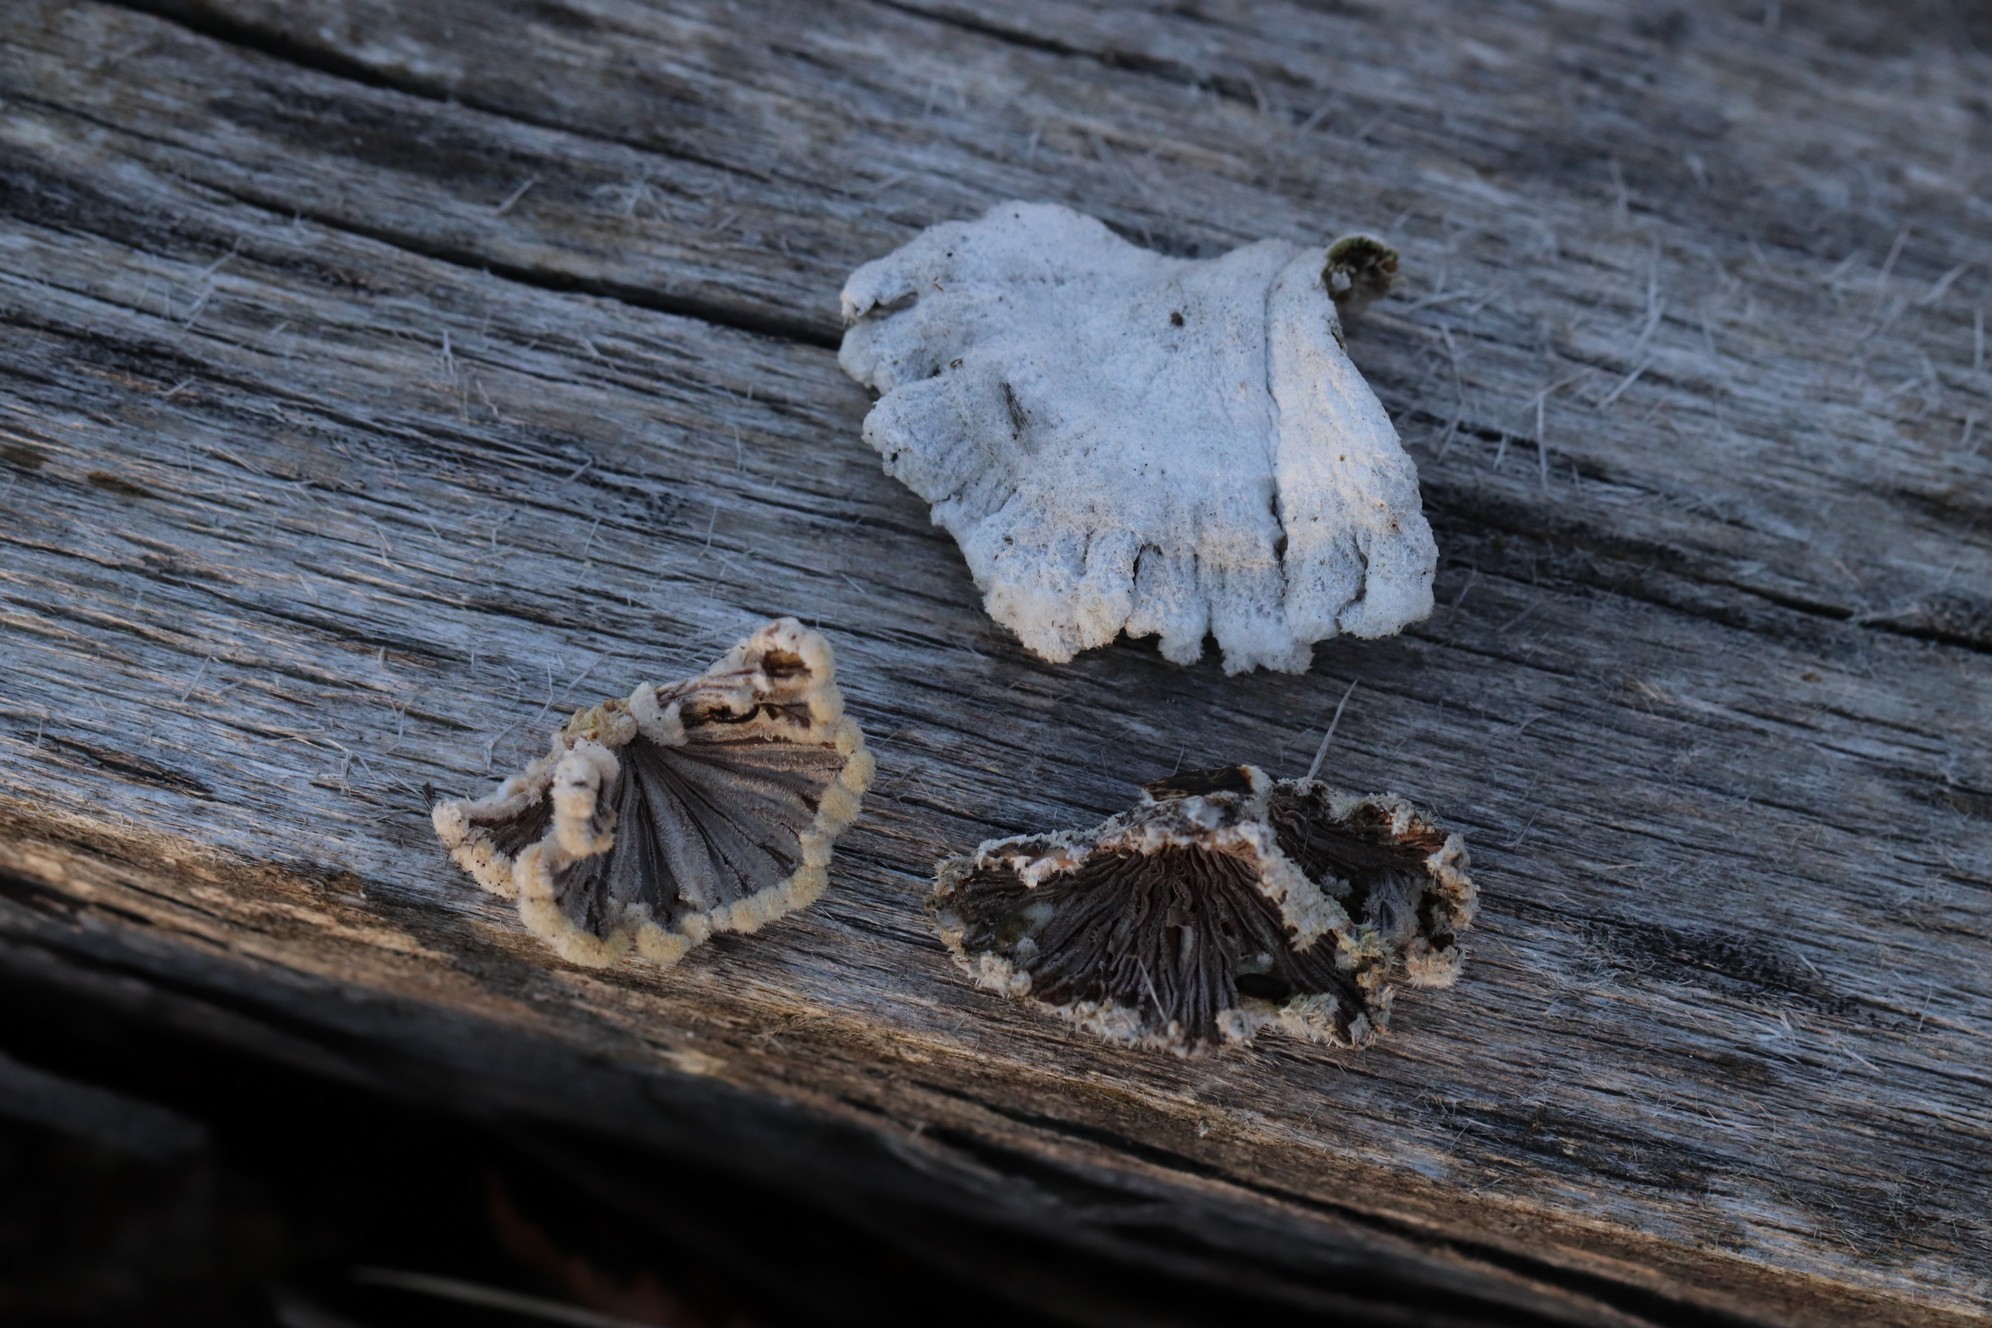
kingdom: Fungi
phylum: Basidiomycota
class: Agaricomycetes
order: Agaricales
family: Schizophyllaceae
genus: Schizophyllum
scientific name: Schizophyllum commune
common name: Common porecrust
